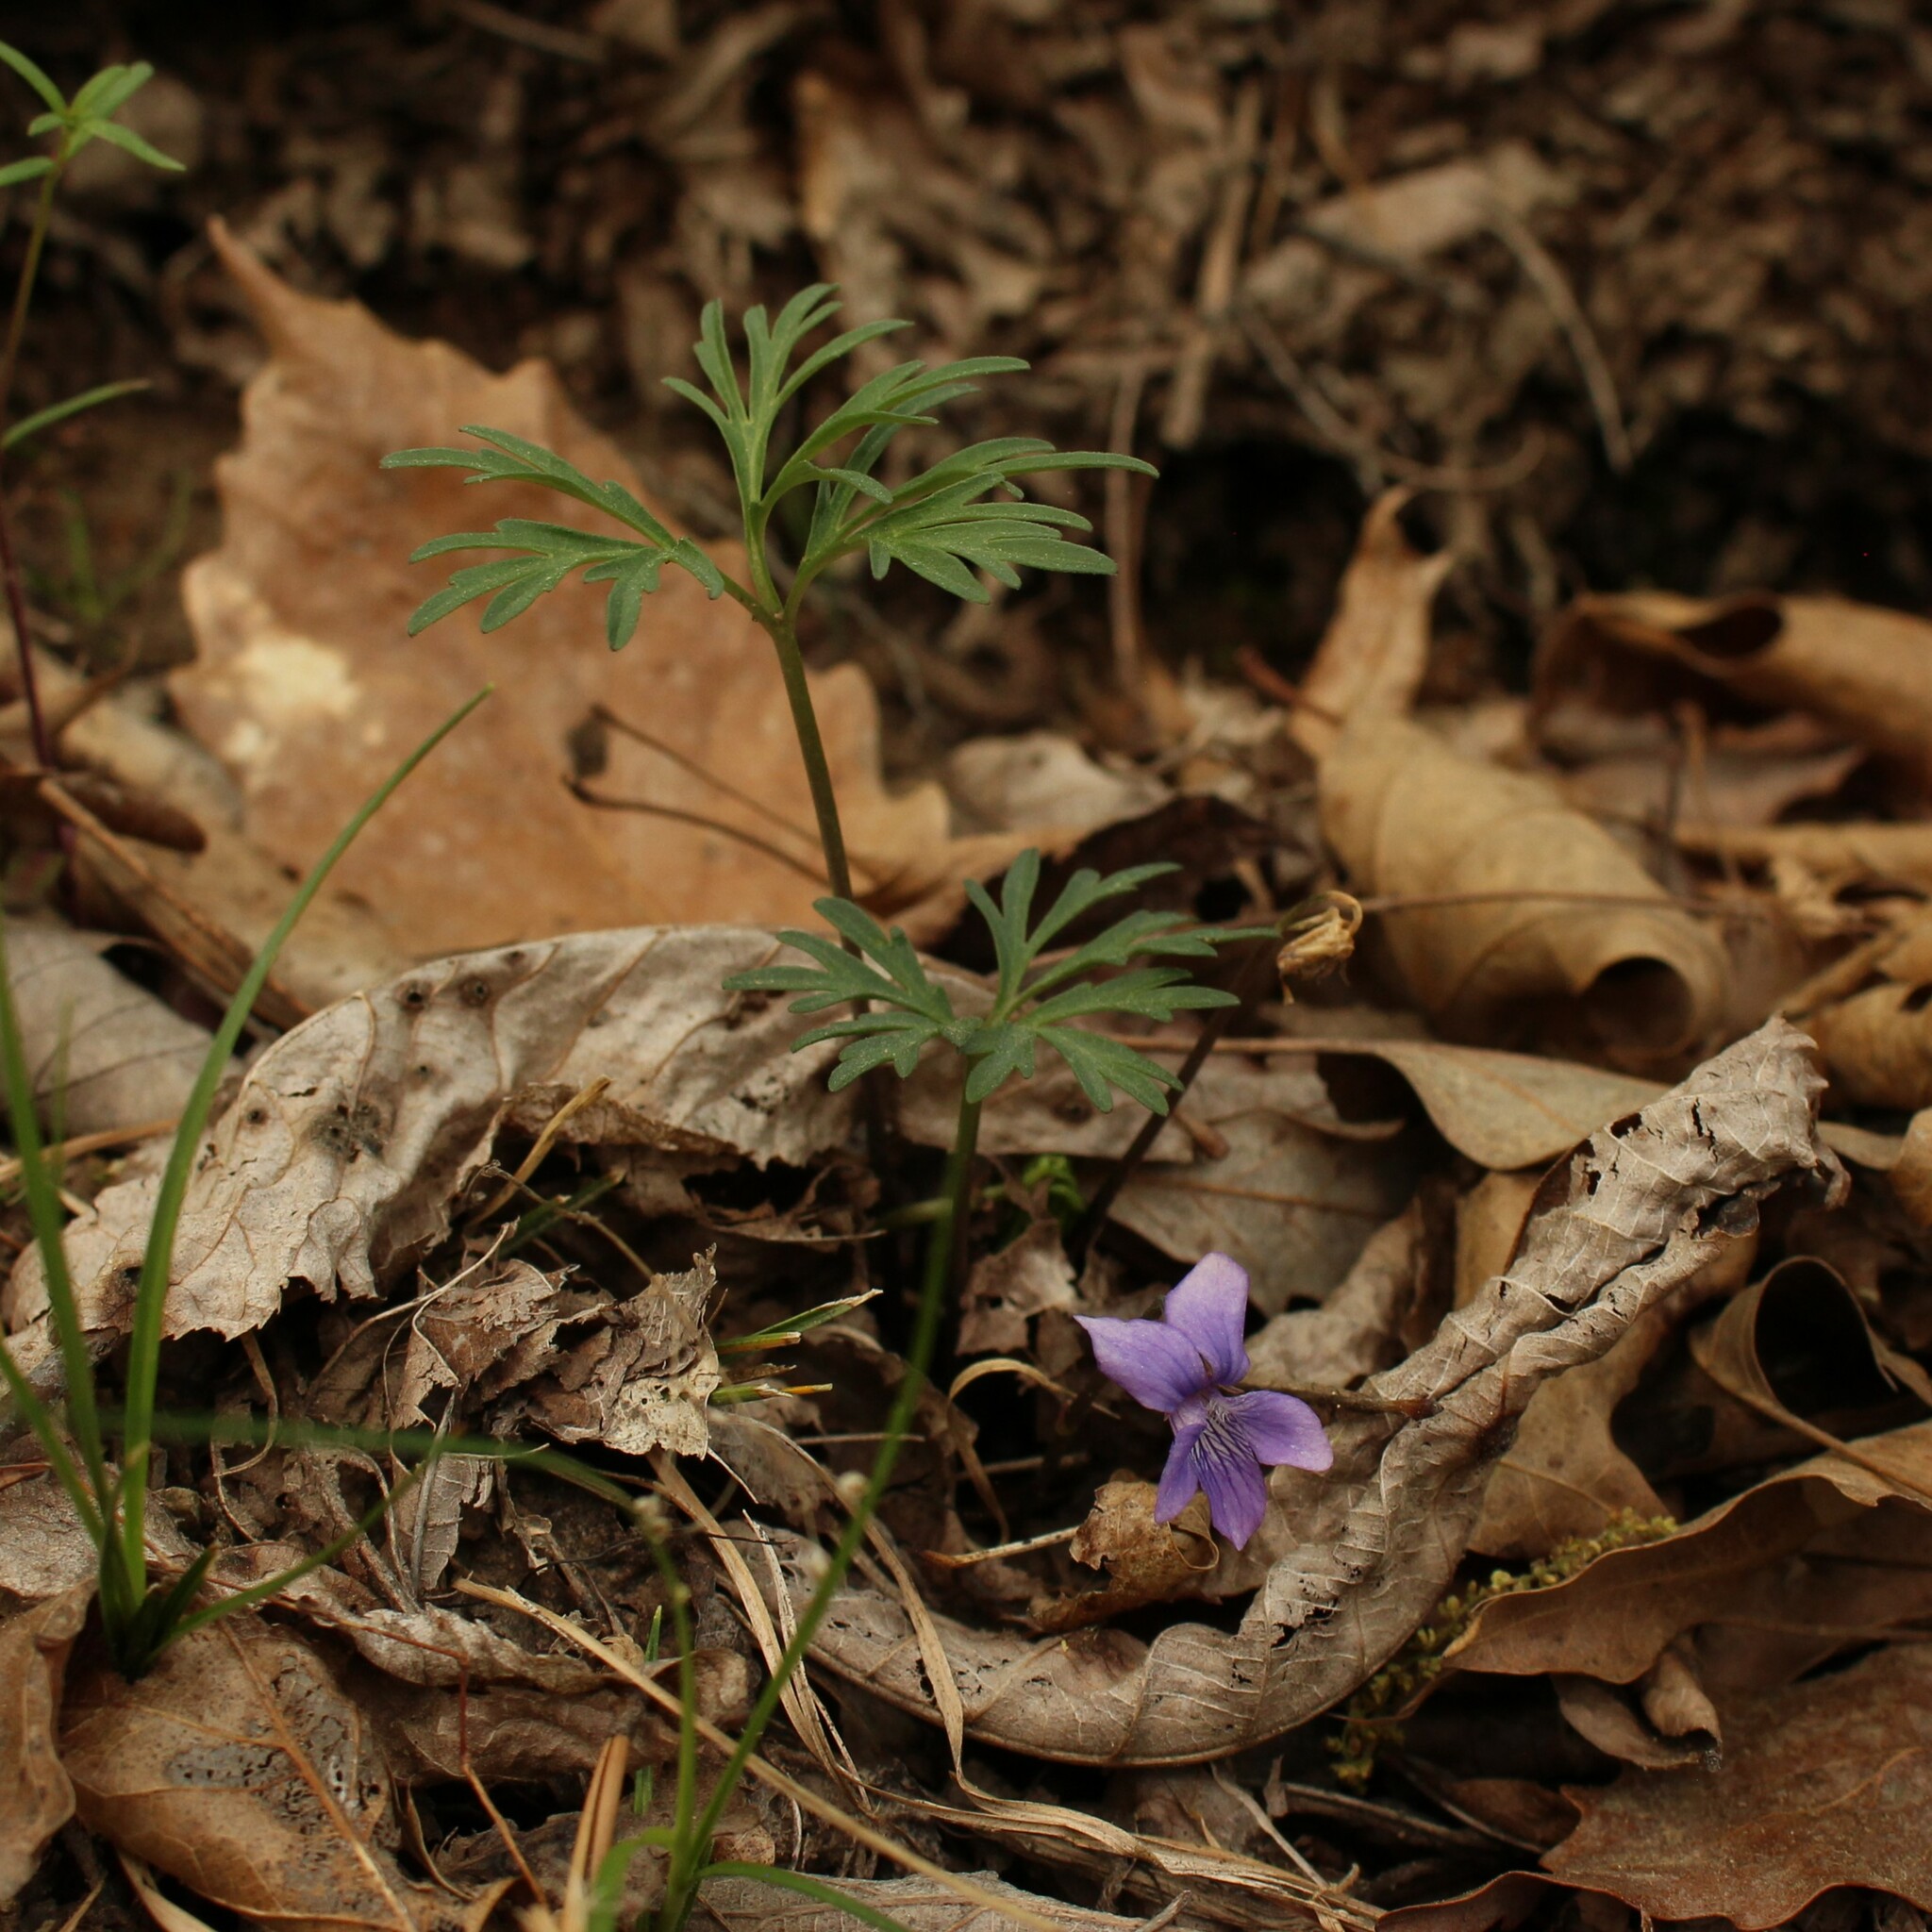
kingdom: Plantae
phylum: Tracheophyta
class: Magnoliopsida
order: Malpighiales
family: Violaceae
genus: Viola
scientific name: Viola
